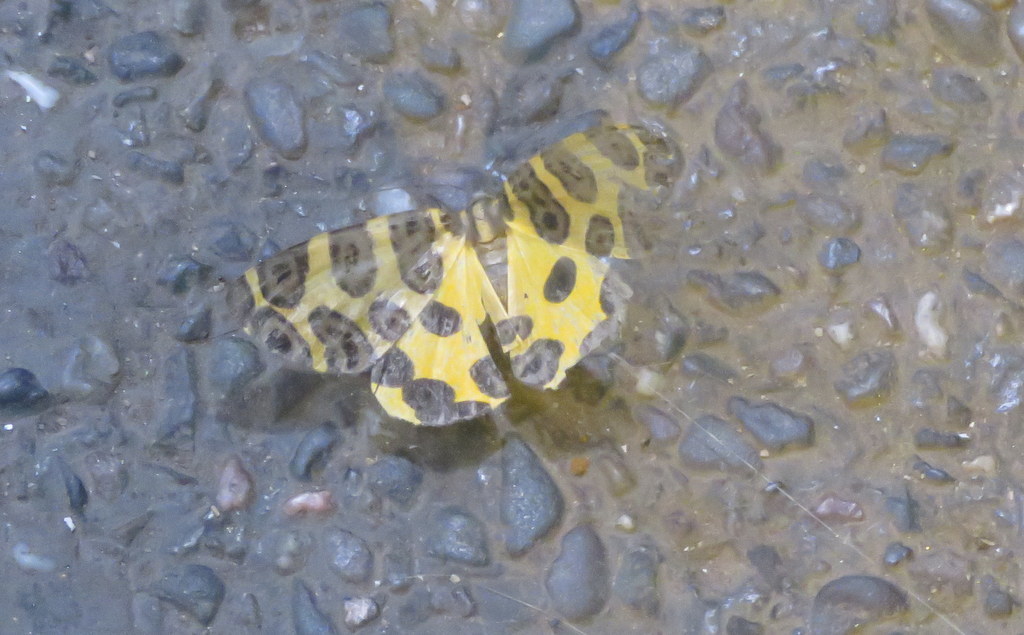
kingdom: Animalia
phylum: Arthropoda
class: Insecta
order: Lepidoptera
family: Geometridae
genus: Pantherodes
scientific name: Pantherodes pardalaria
